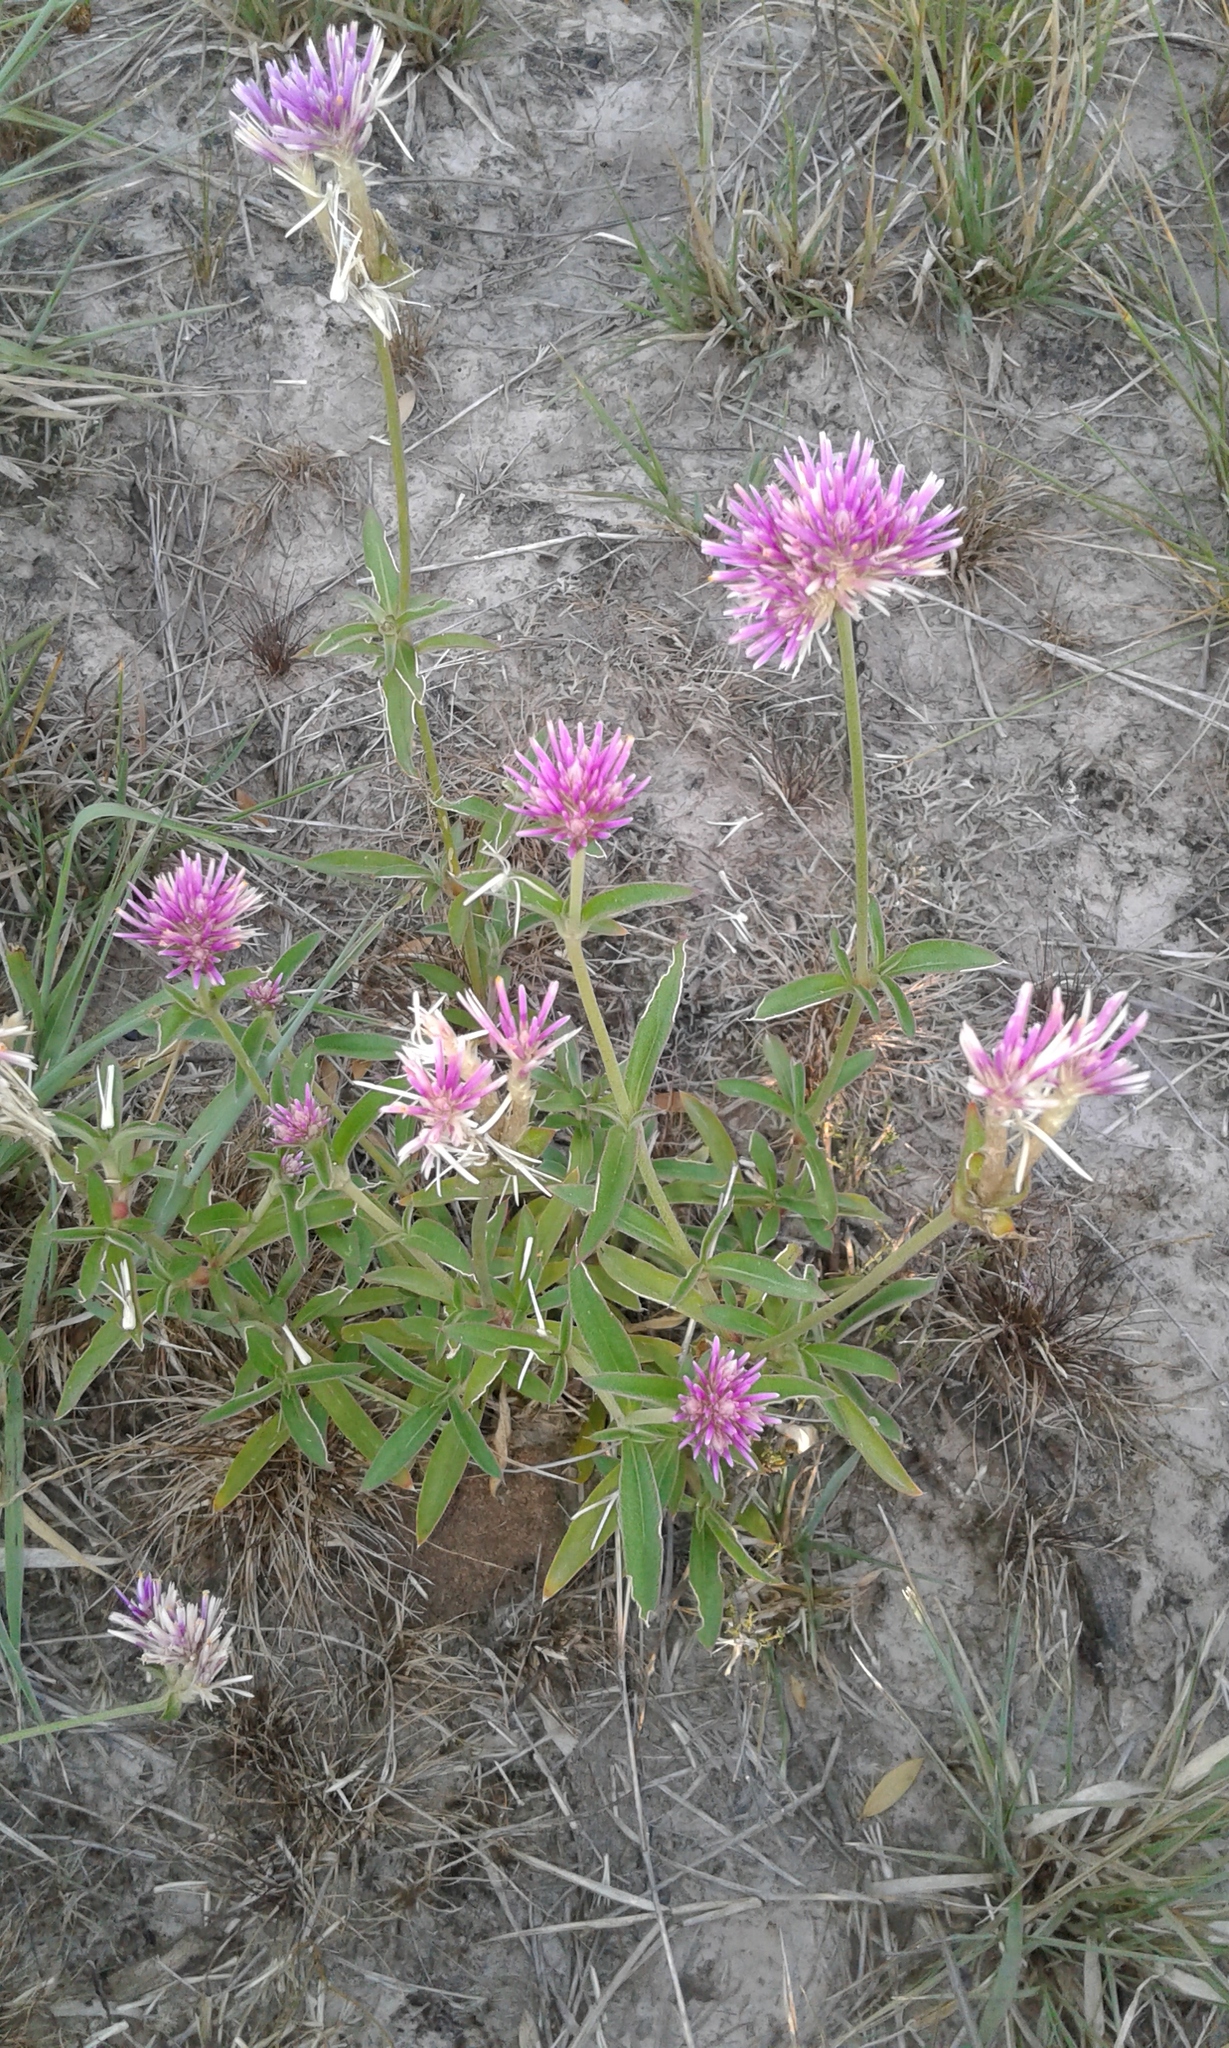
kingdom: Plantae
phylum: Tracheophyta
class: Magnoliopsida
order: Caryophyllales
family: Amaranthaceae
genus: Gomphrena
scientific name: Gomphrena pulchella
